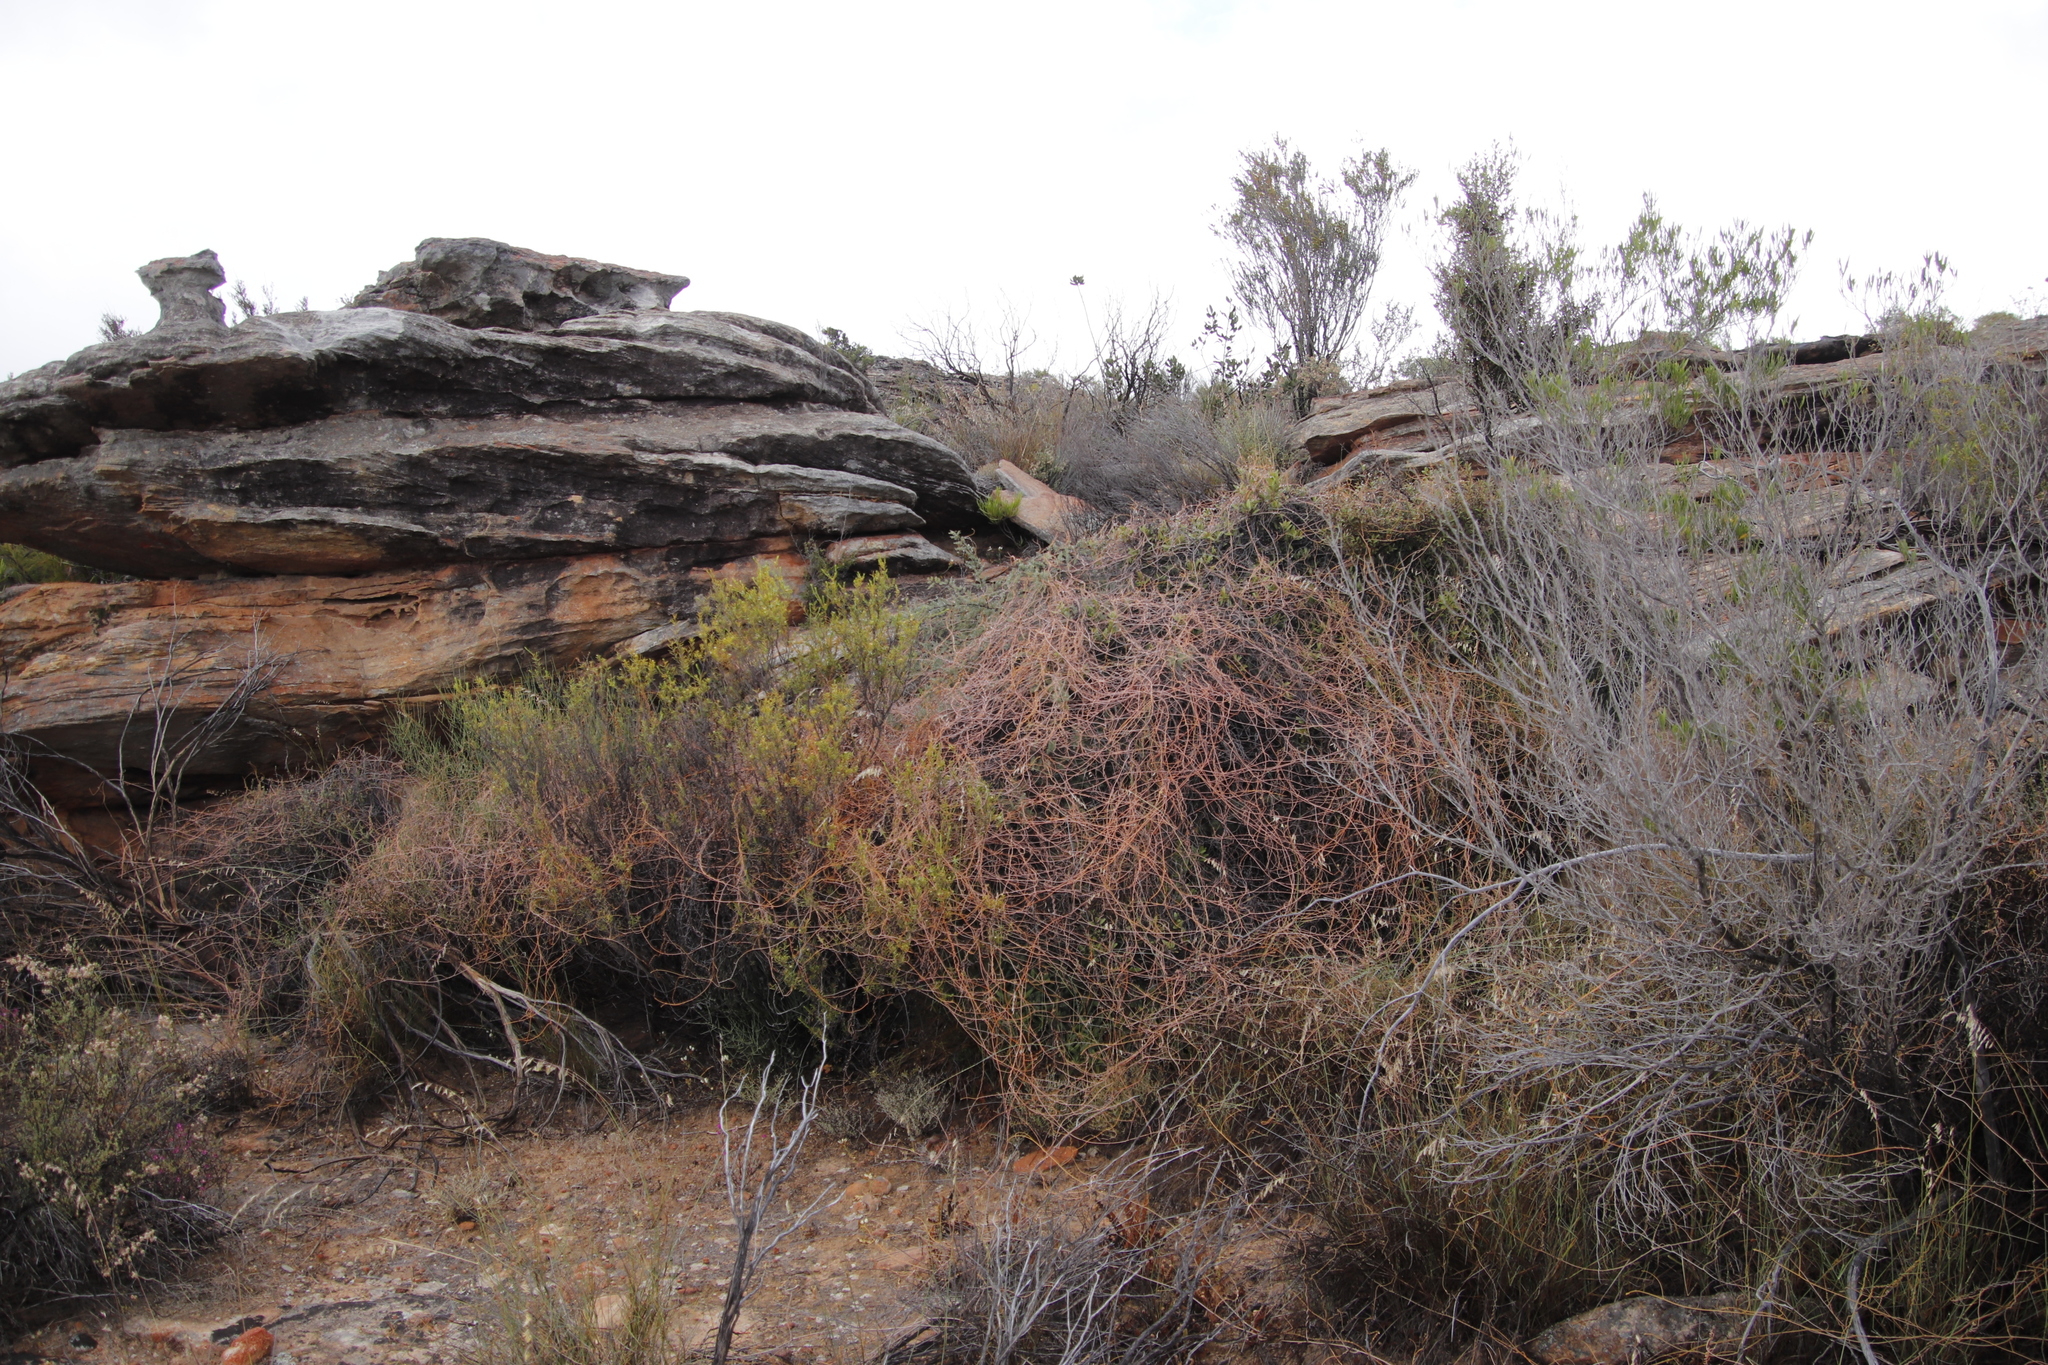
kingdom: Plantae
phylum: Tracheophyta
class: Magnoliopsida
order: Laurales
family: Lauraceae
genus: Cassytha
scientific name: Cassytha ciliolata
